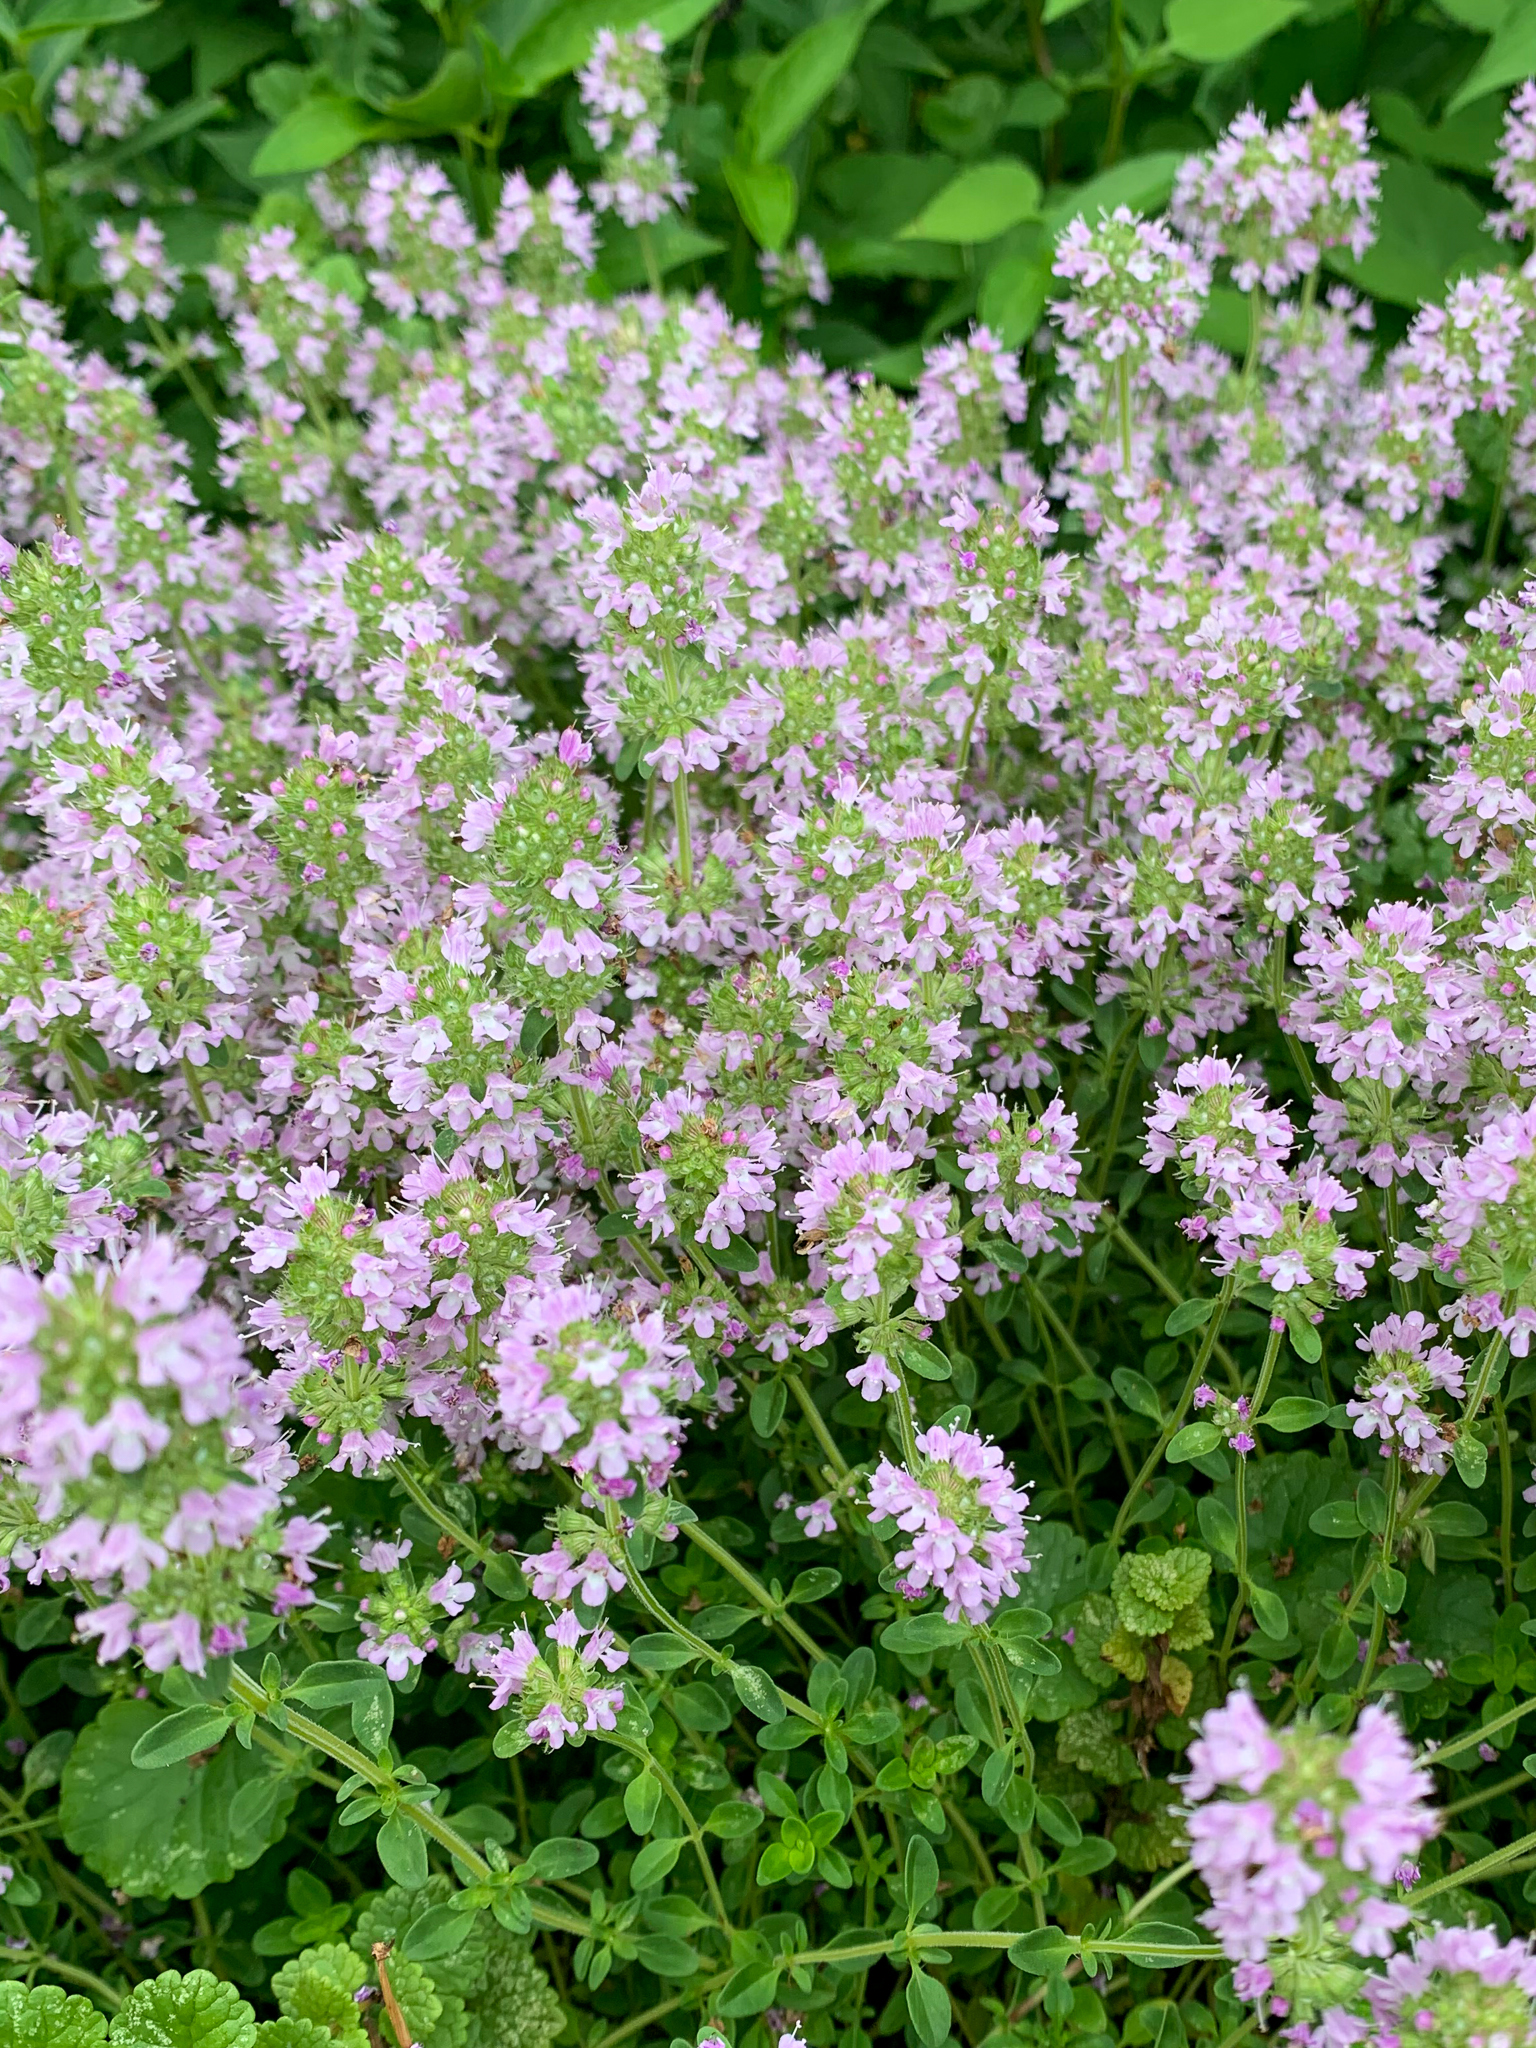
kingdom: Plantae
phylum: Tracheophyta
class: Magnoliopsida
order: Lamiales
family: Lamiaceae
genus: Thymus
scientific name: Thymus pulegioides
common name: Large thyme
